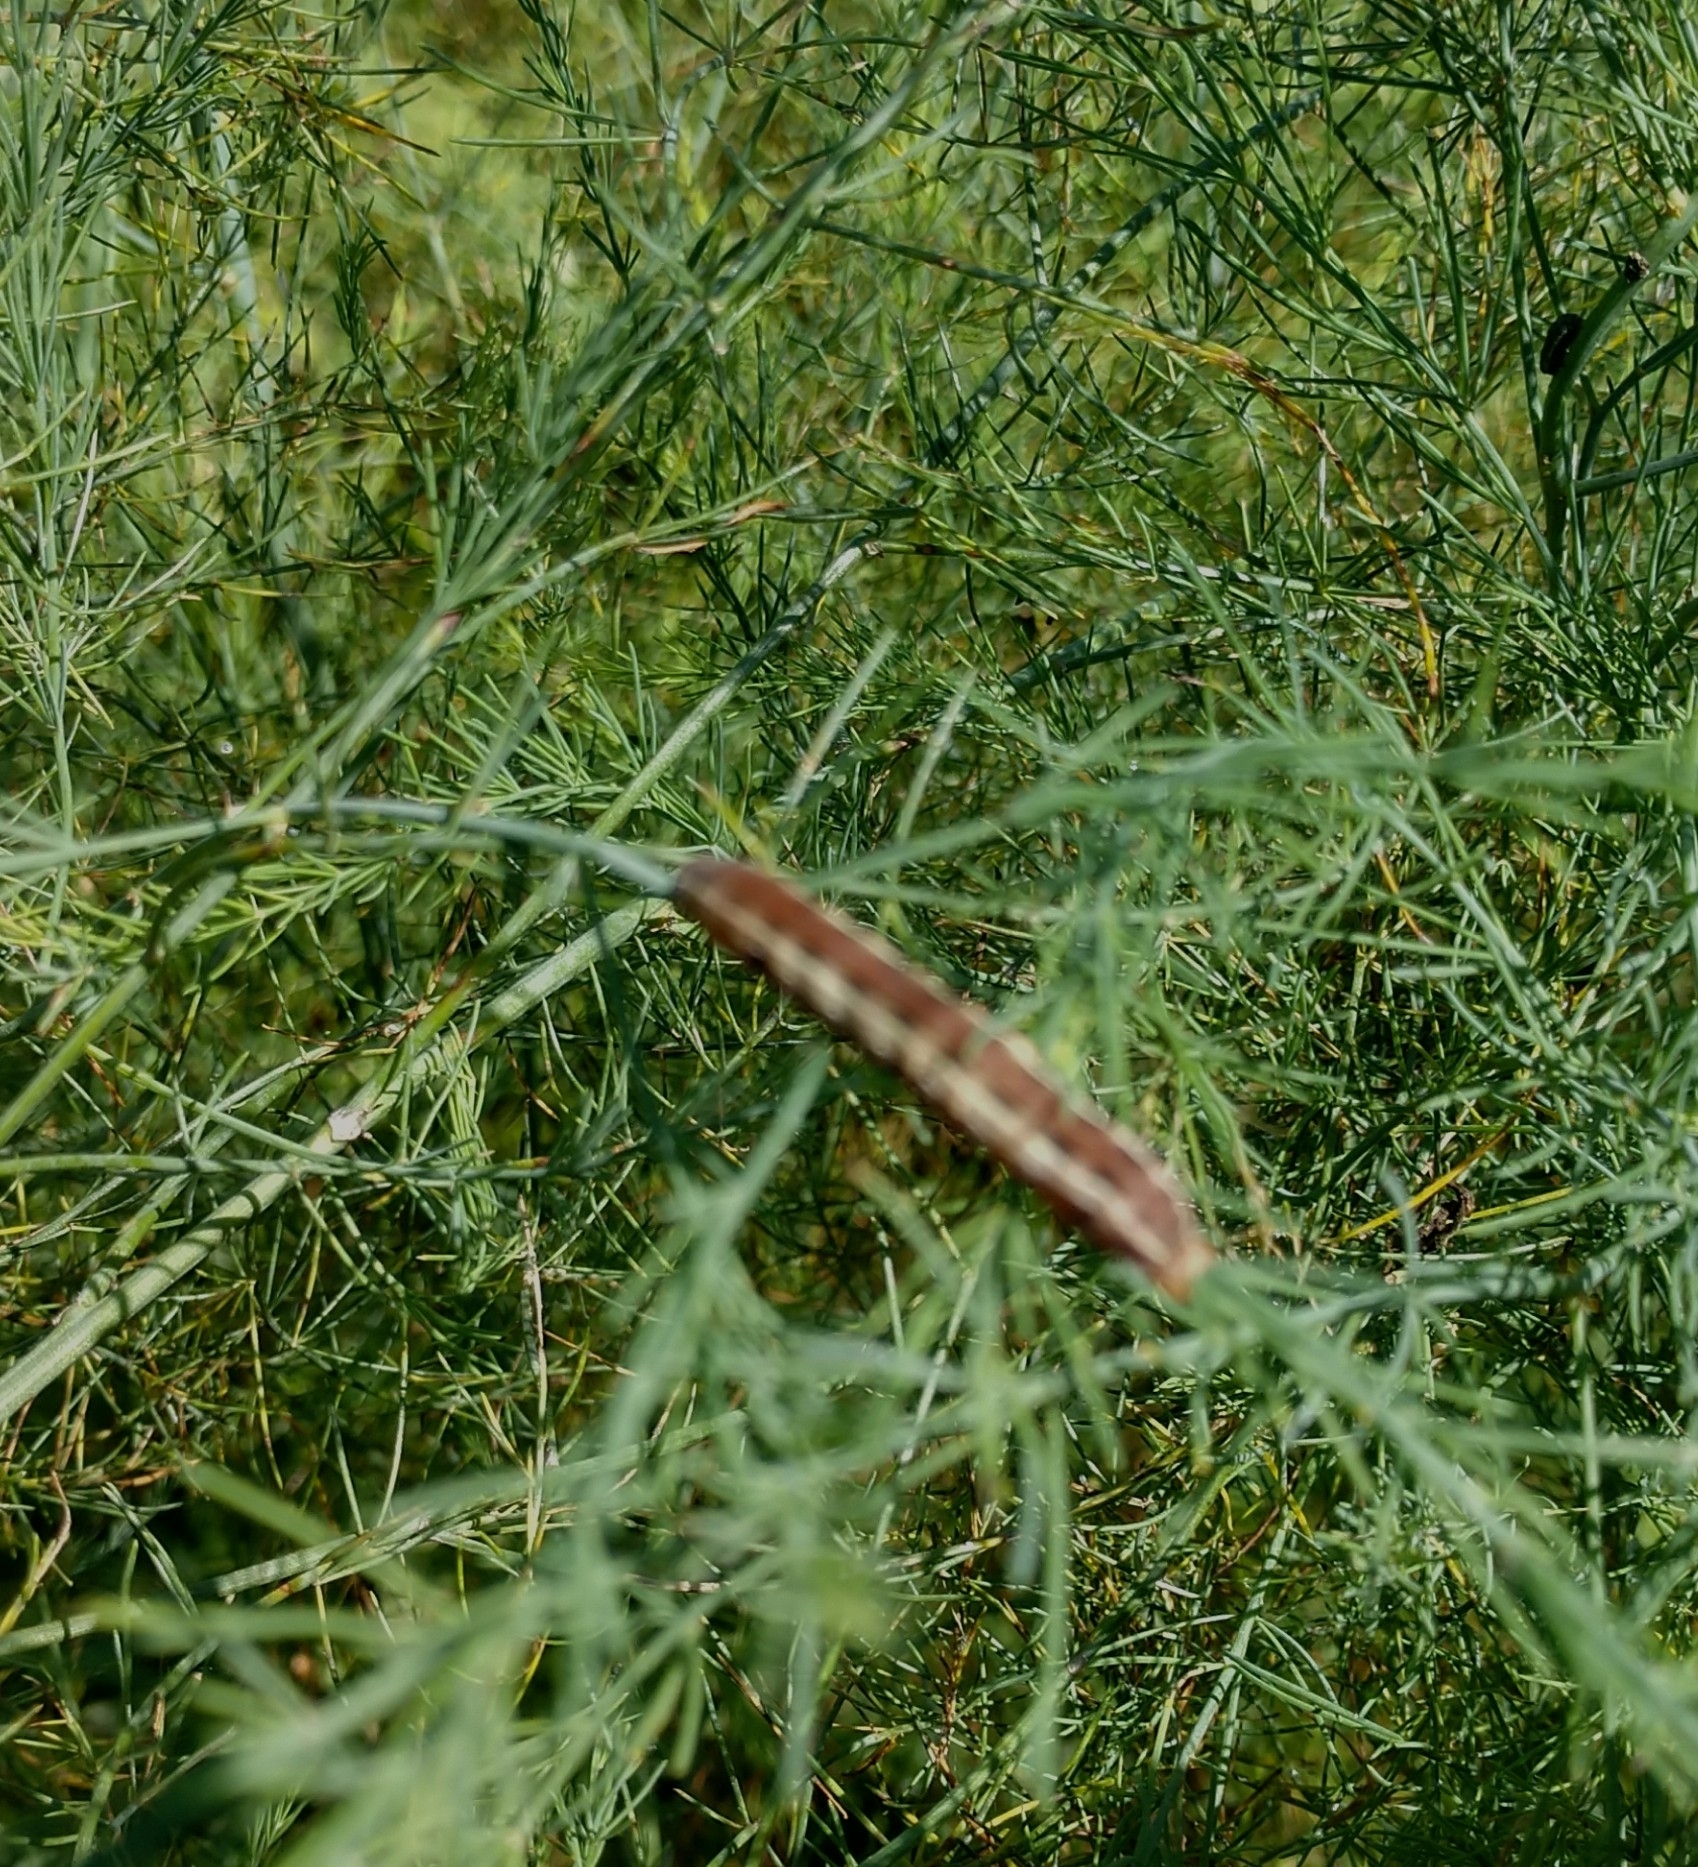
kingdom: Animalia
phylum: Arthropoda
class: Insecta
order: Lepidoptera
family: Noctuidae
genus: Spodoptera
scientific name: Spodoptera ornithogalli
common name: Yellow-striped armyworm
